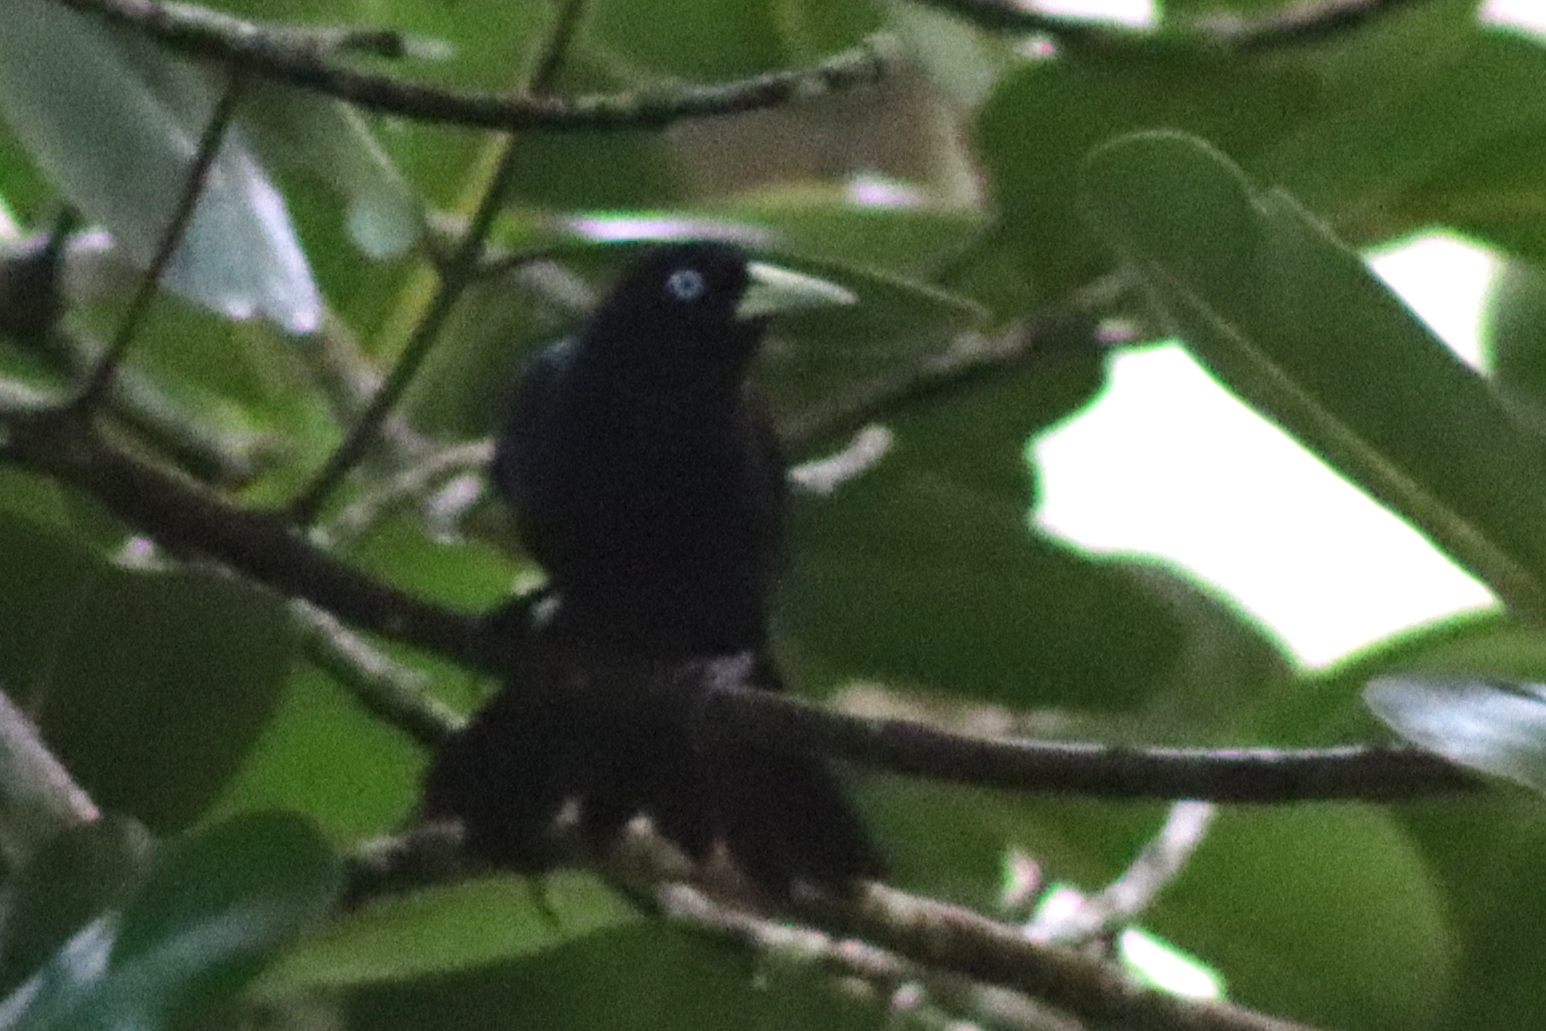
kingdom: Animalia
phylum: Chordata
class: Aves
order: Passeriformes
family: Icteridae
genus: Cacicus
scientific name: Cacicus uropygialis
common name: Scarlet-rumped cacique
